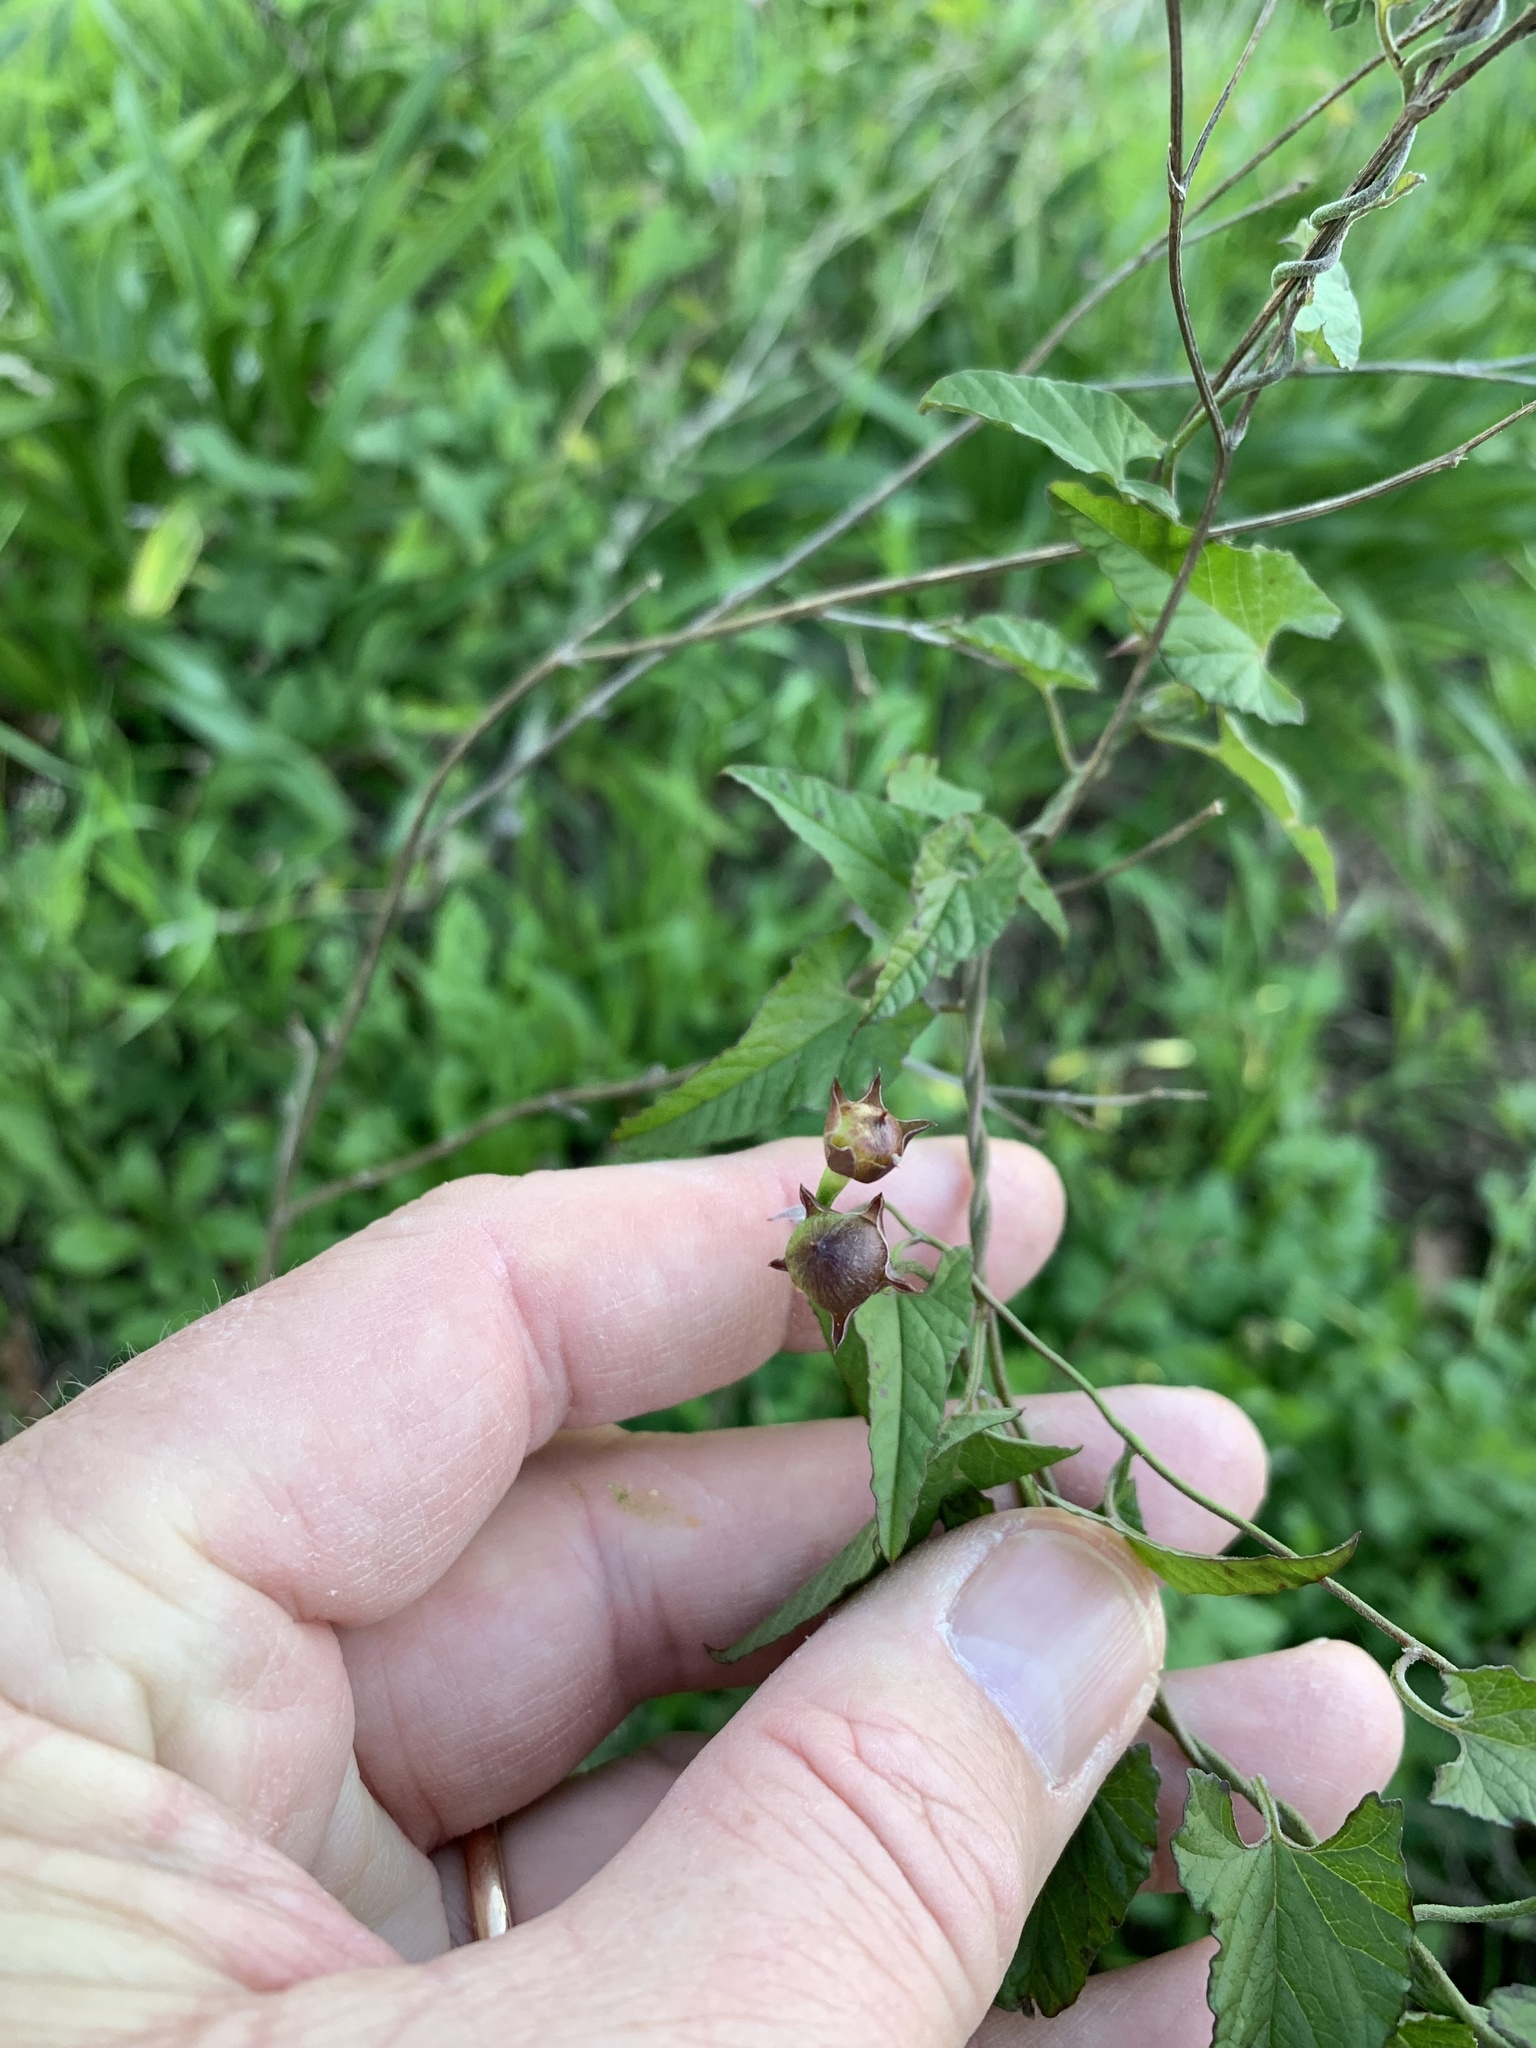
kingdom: Plantae
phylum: Tracheophyta
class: Magnoliopsida
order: Solanales
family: Convolvulaceae
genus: Convolvulus
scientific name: Convolvulus farinosus
